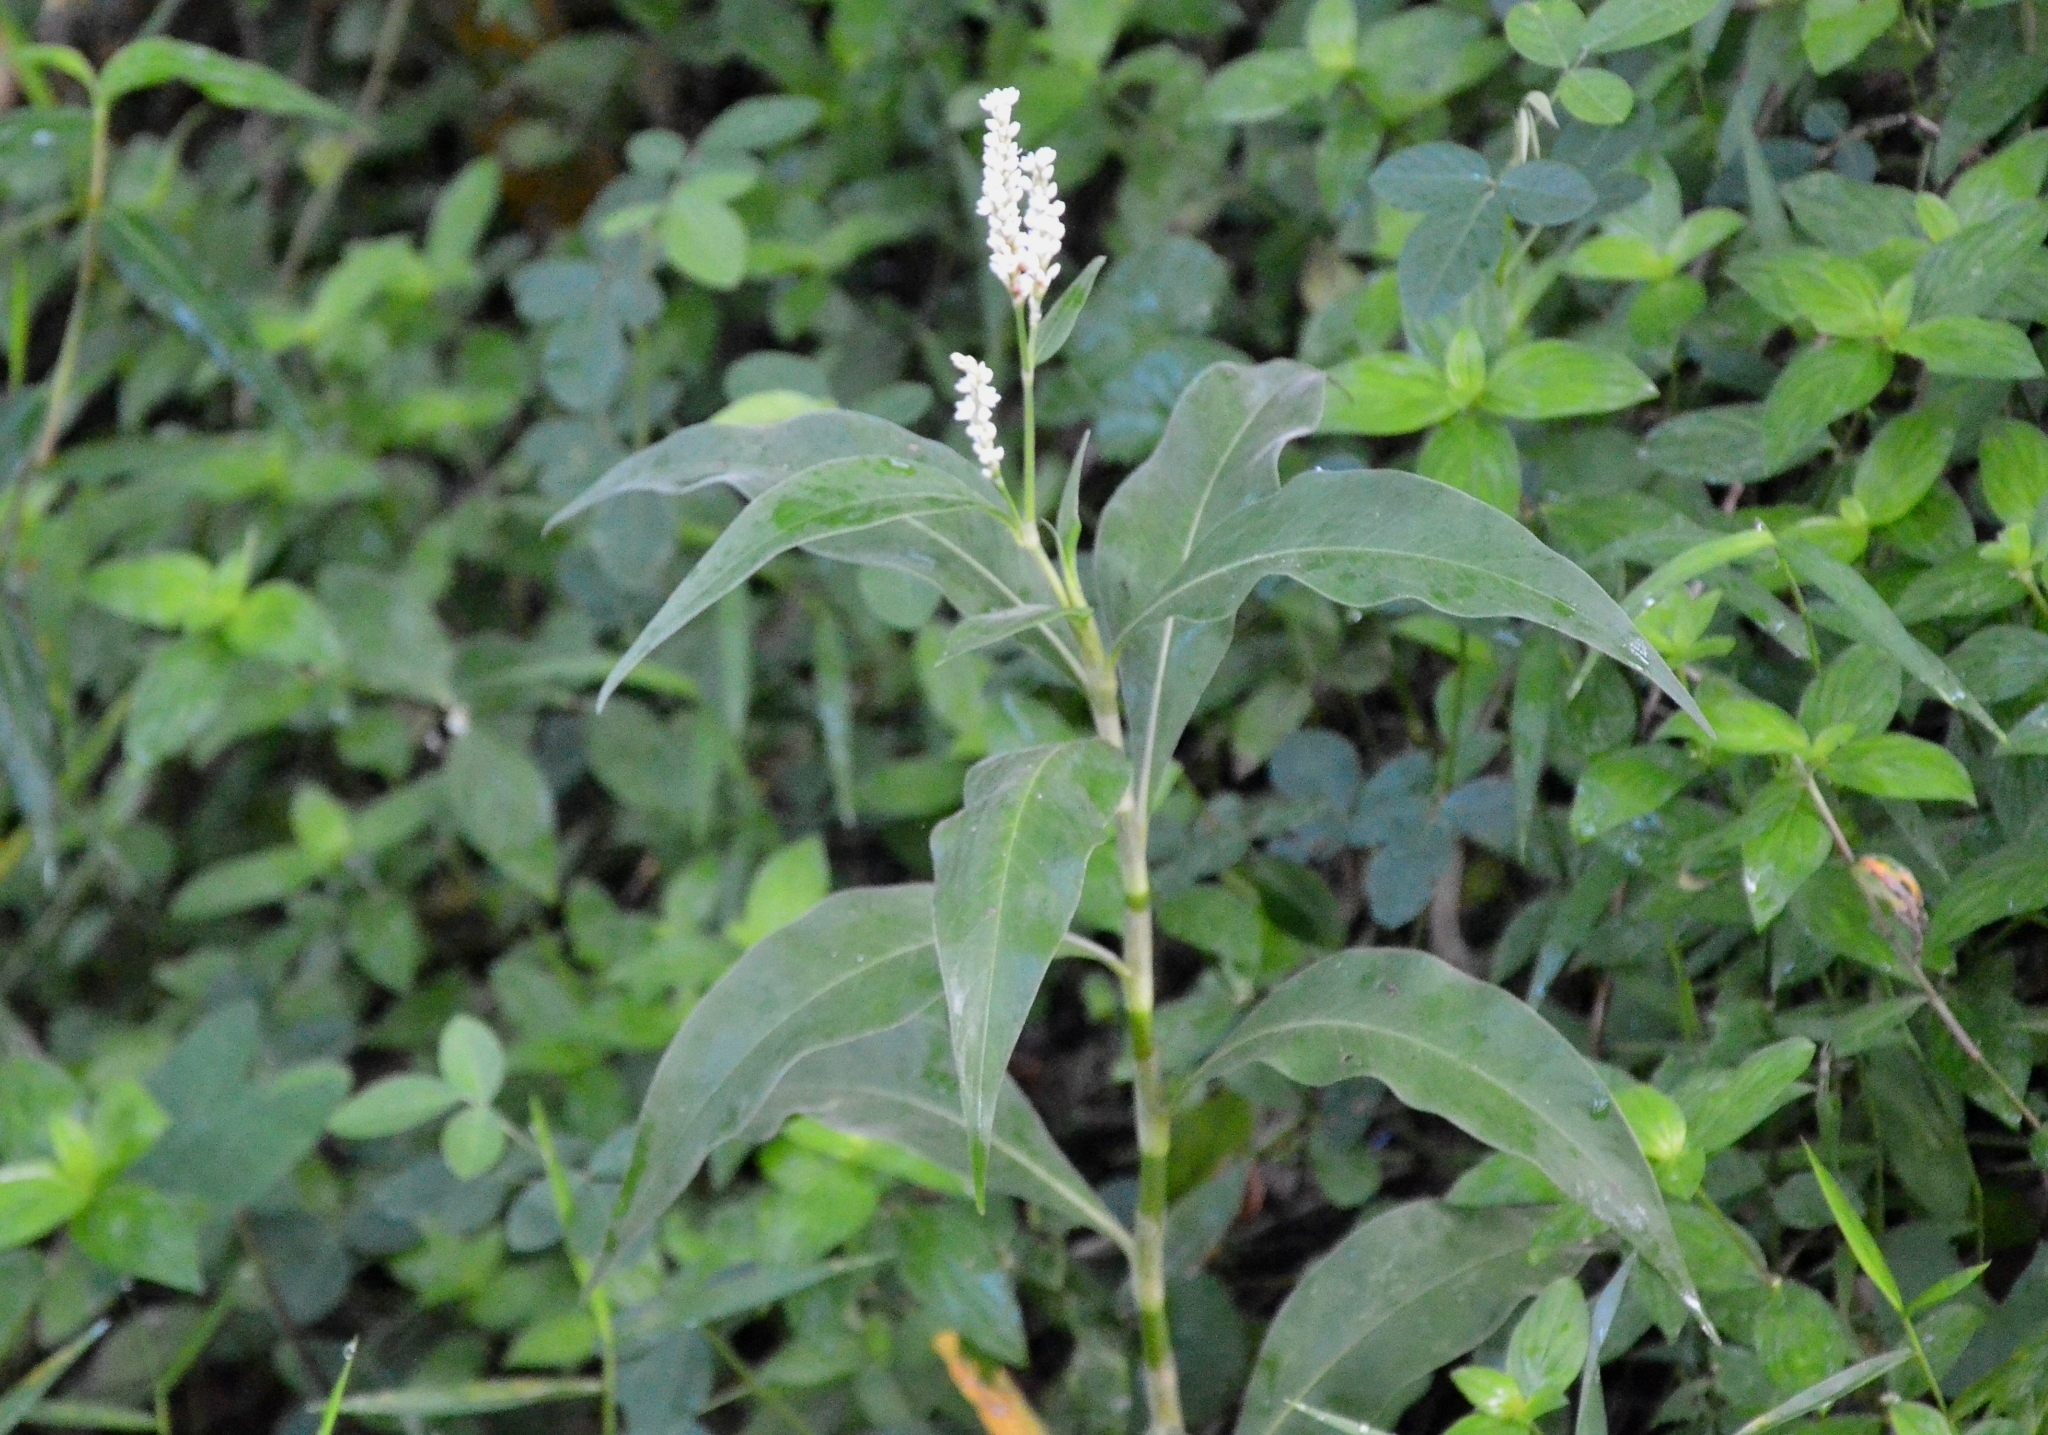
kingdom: Plantae
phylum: Tracheophyta
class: Magnoliopsida
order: Caryophyllales
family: Polygonaceae
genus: Persicaria
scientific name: Persicaria attenuata
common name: Hairy knotweed
